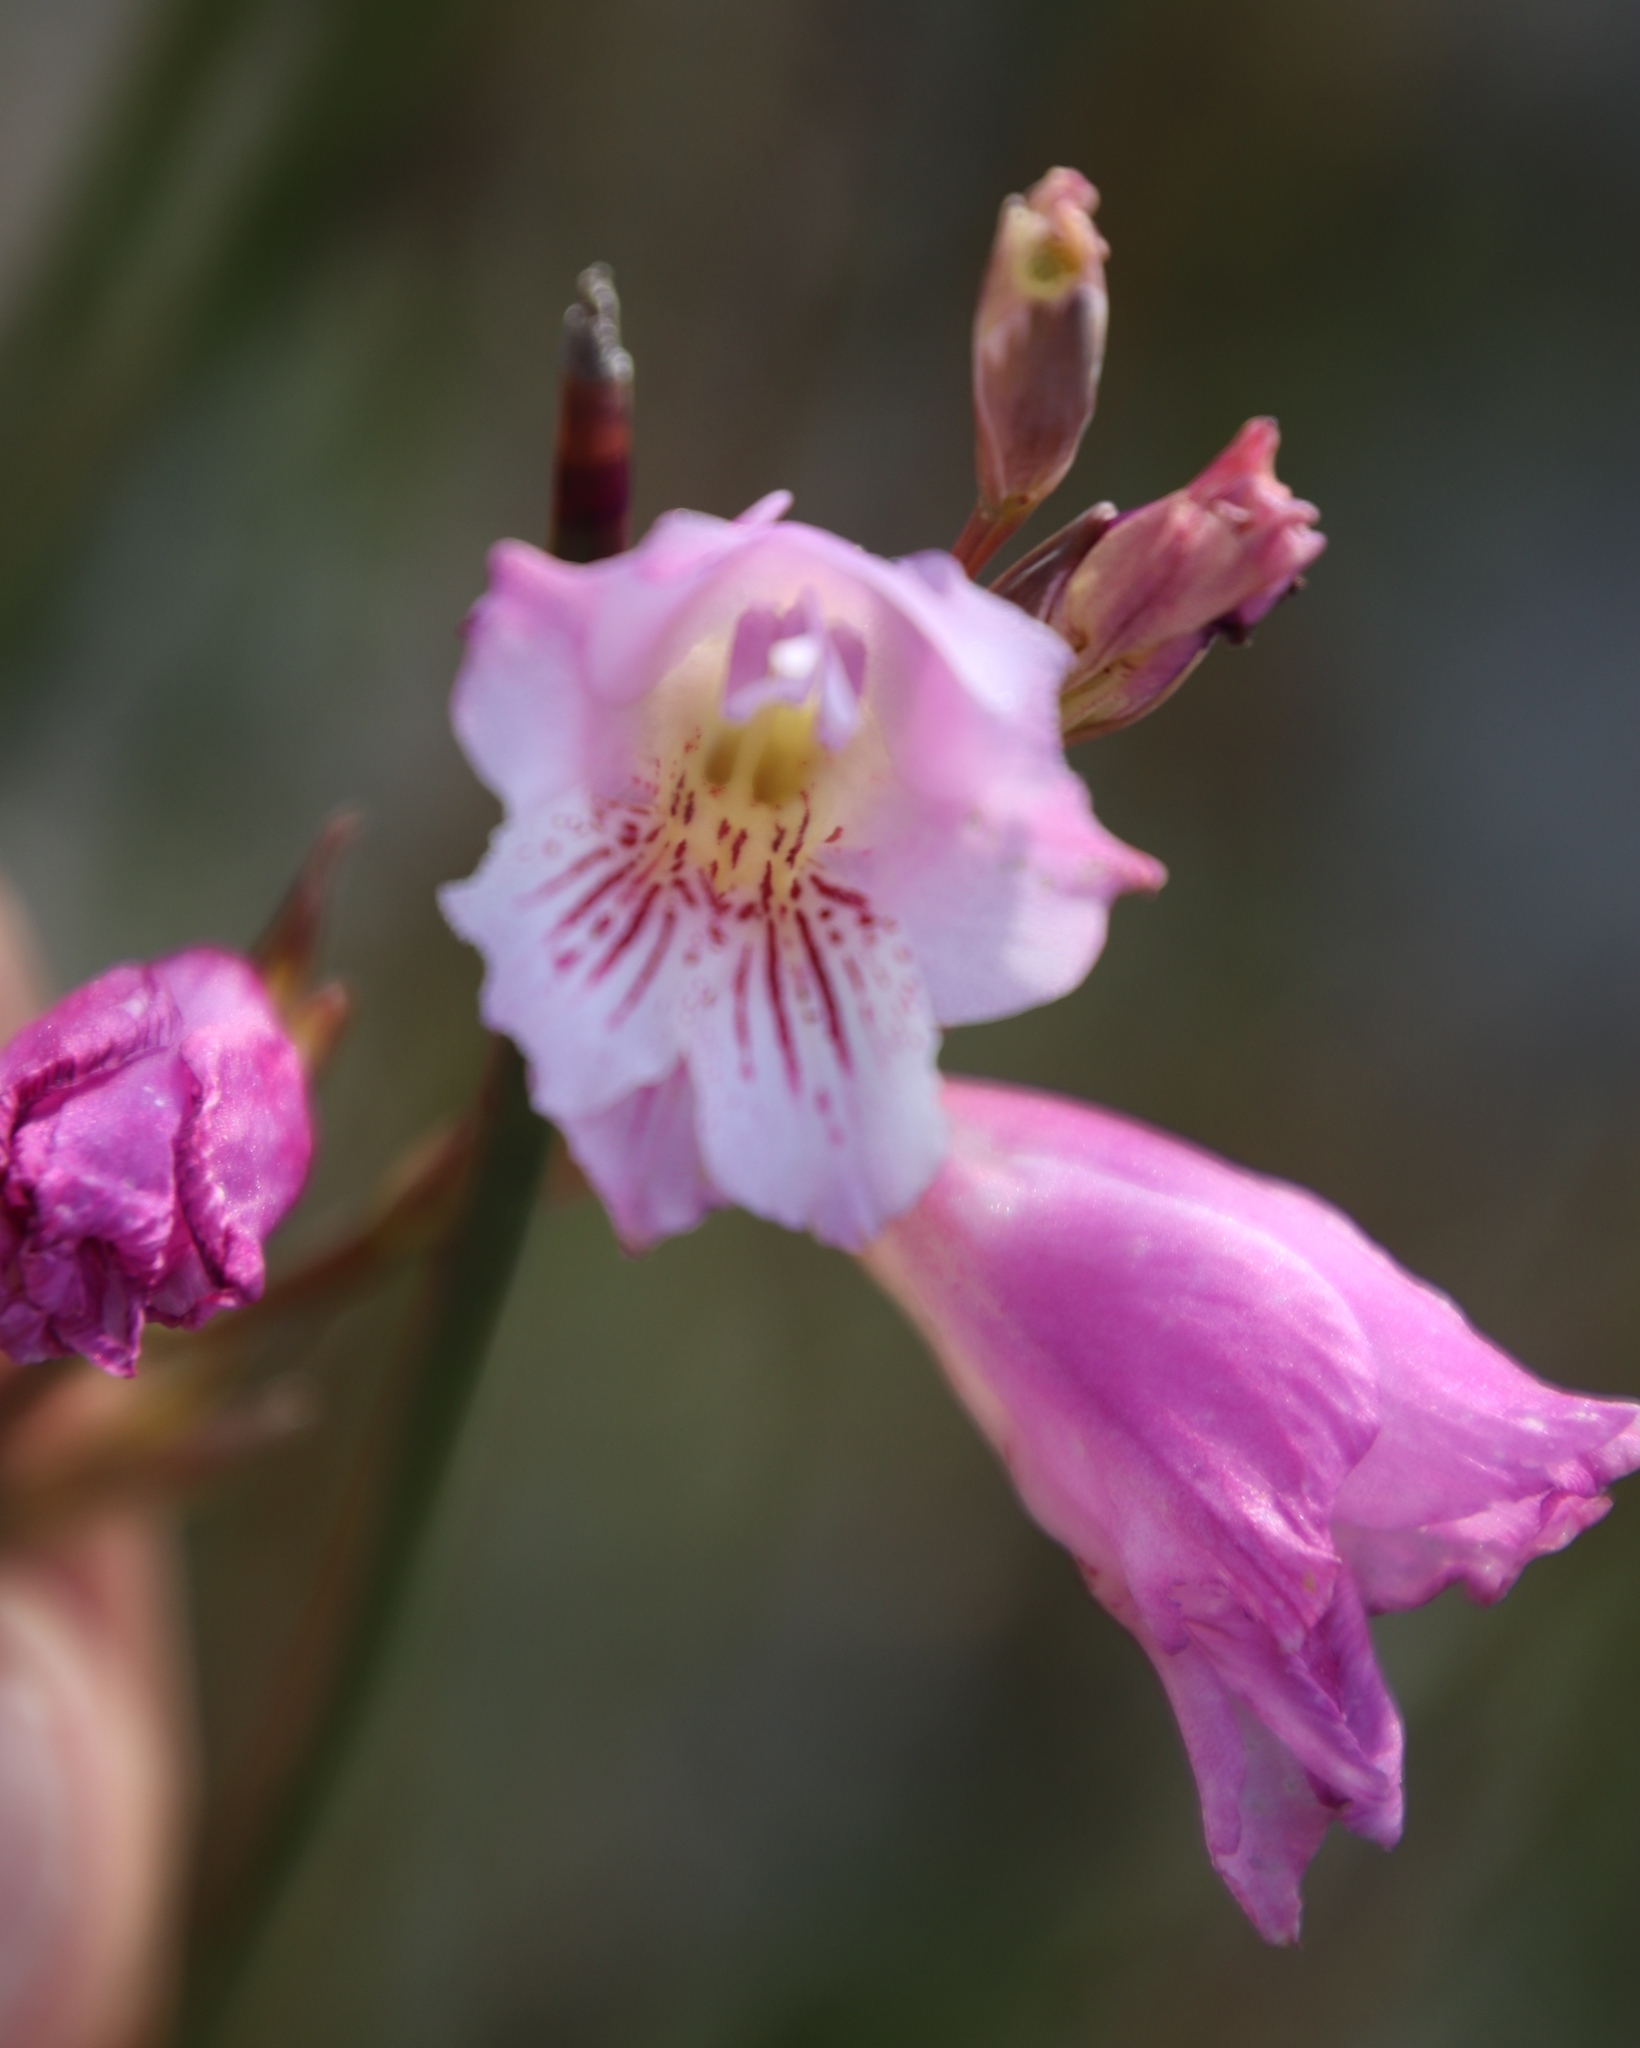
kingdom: Plantae
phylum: Tracheophyta
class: Liliopsida
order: Asparagales
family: Iridaceae
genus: Gladiolus
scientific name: Gladiolus hirsutus
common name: Small pink afrikaner
